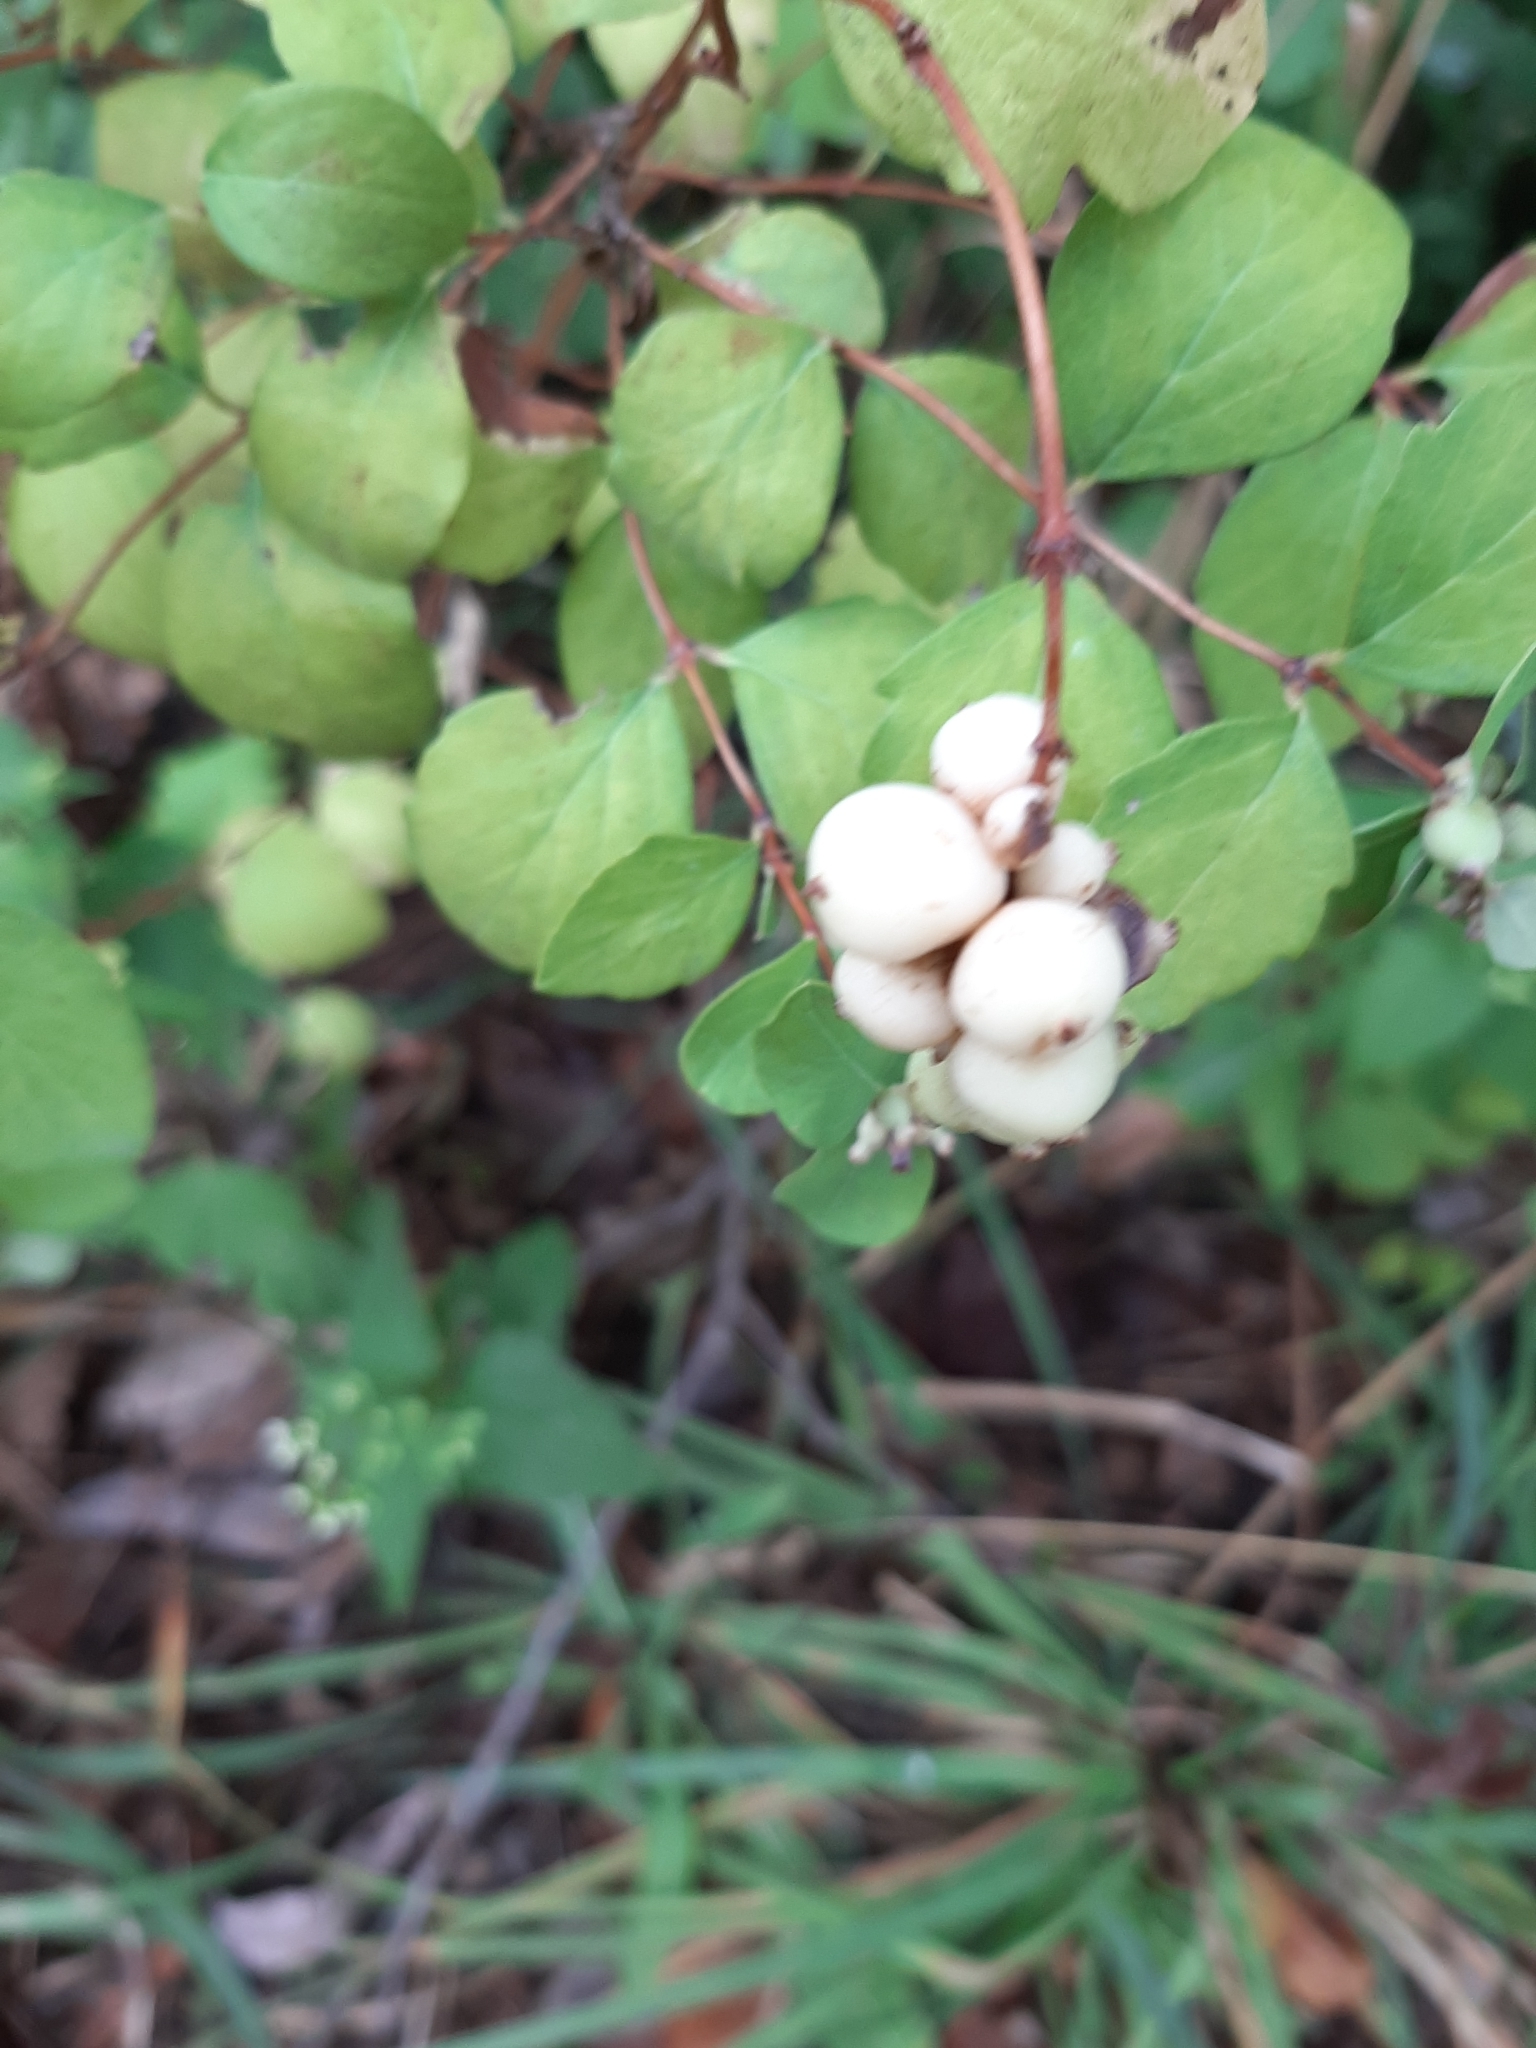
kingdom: Plantae
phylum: Tracheophyta
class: Magnoliopsida
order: Dipsacales
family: Caprifoliaceae
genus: Symphoricarpos
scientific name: Symphoricarpos albus
